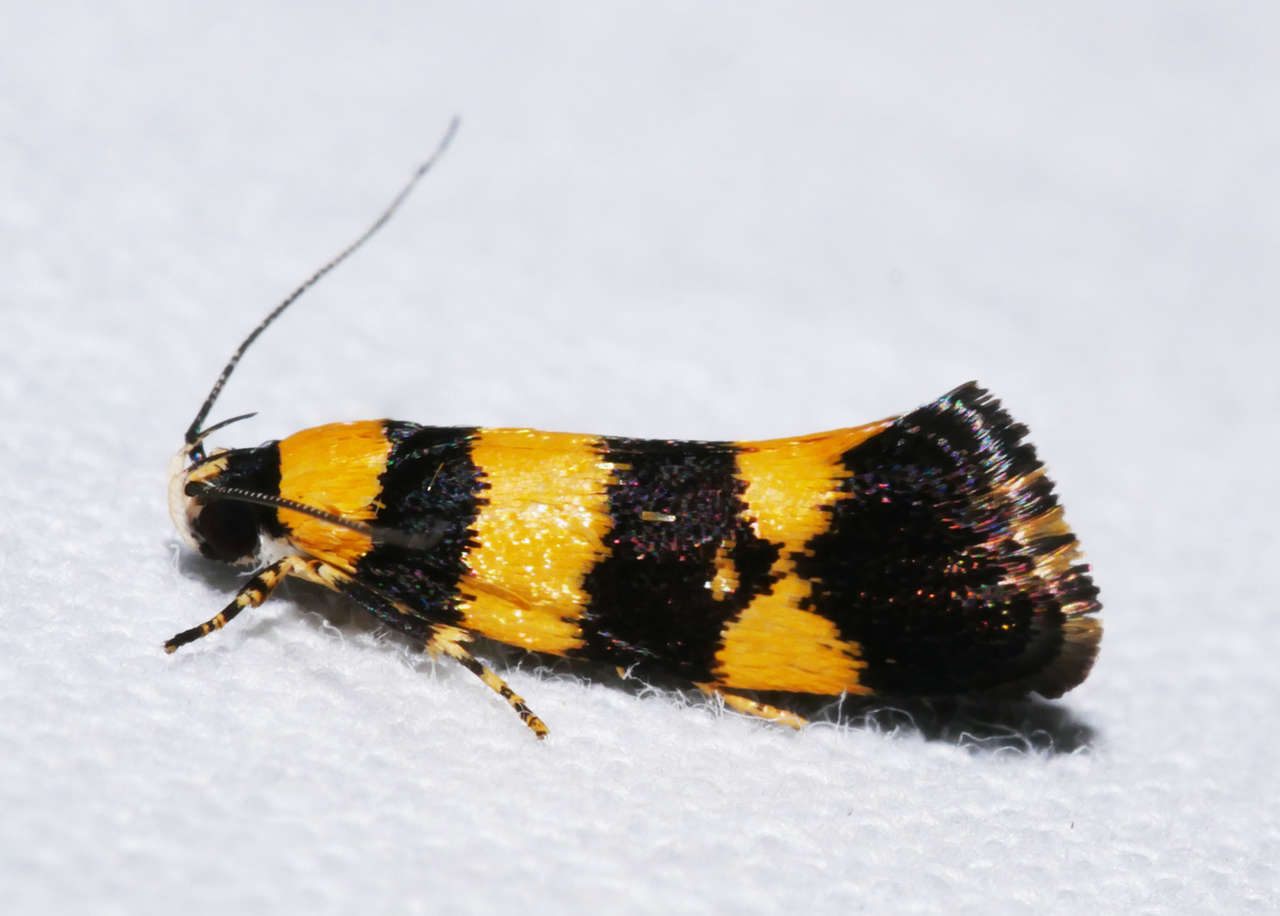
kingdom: Animalia
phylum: Arthropoda
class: Insecta
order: Lepidoptera
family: Xyloryctidae
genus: Telecrates
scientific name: Telecrates melanochrysa
